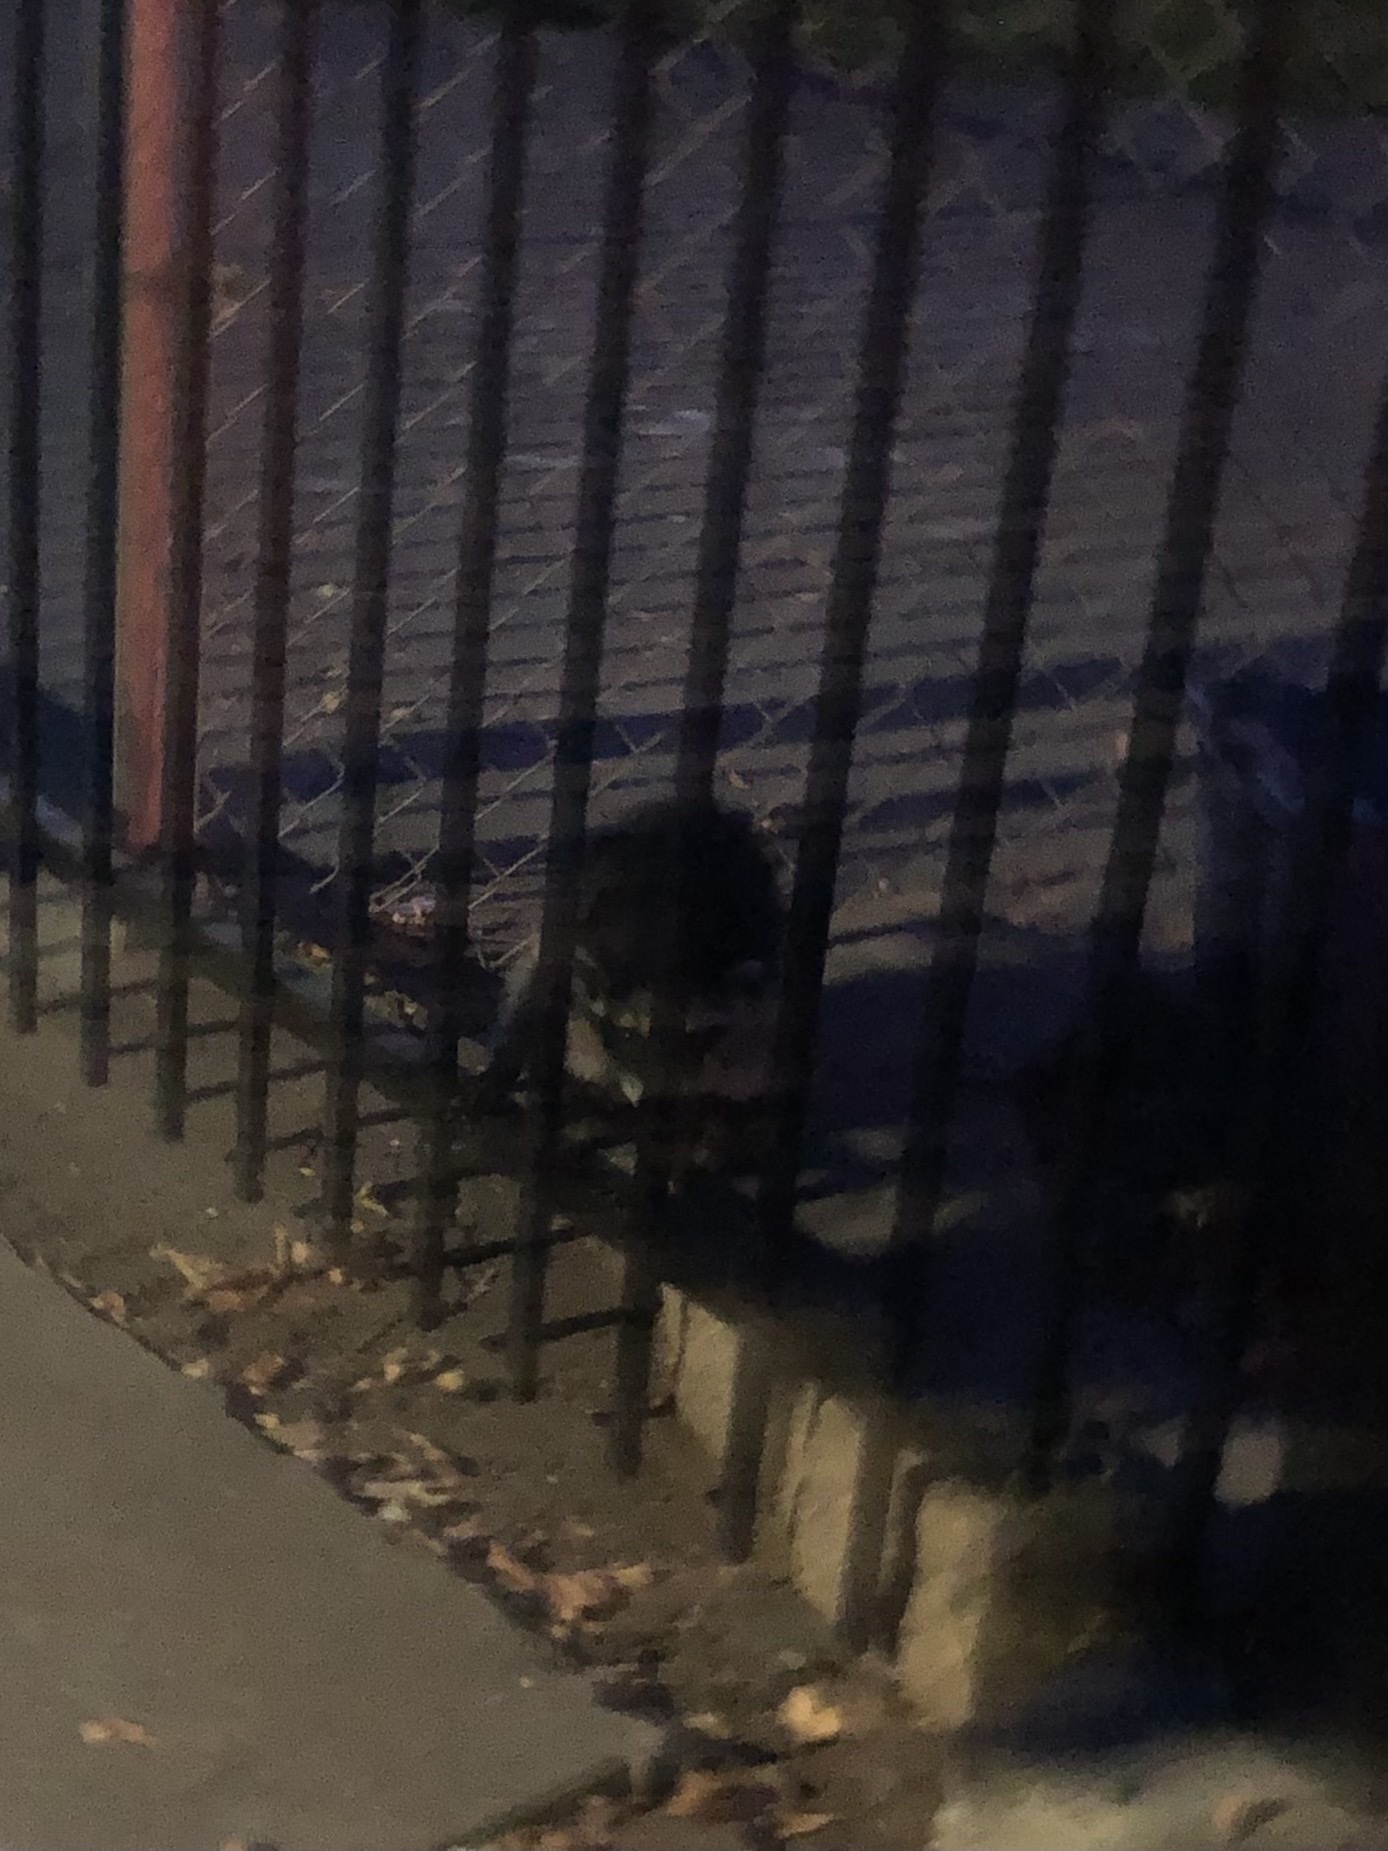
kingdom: Animalia
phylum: Chordata
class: Mammalia
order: Carnivora
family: Procyonidae
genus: Procyon
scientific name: Procyon lotor
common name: Raccoon
